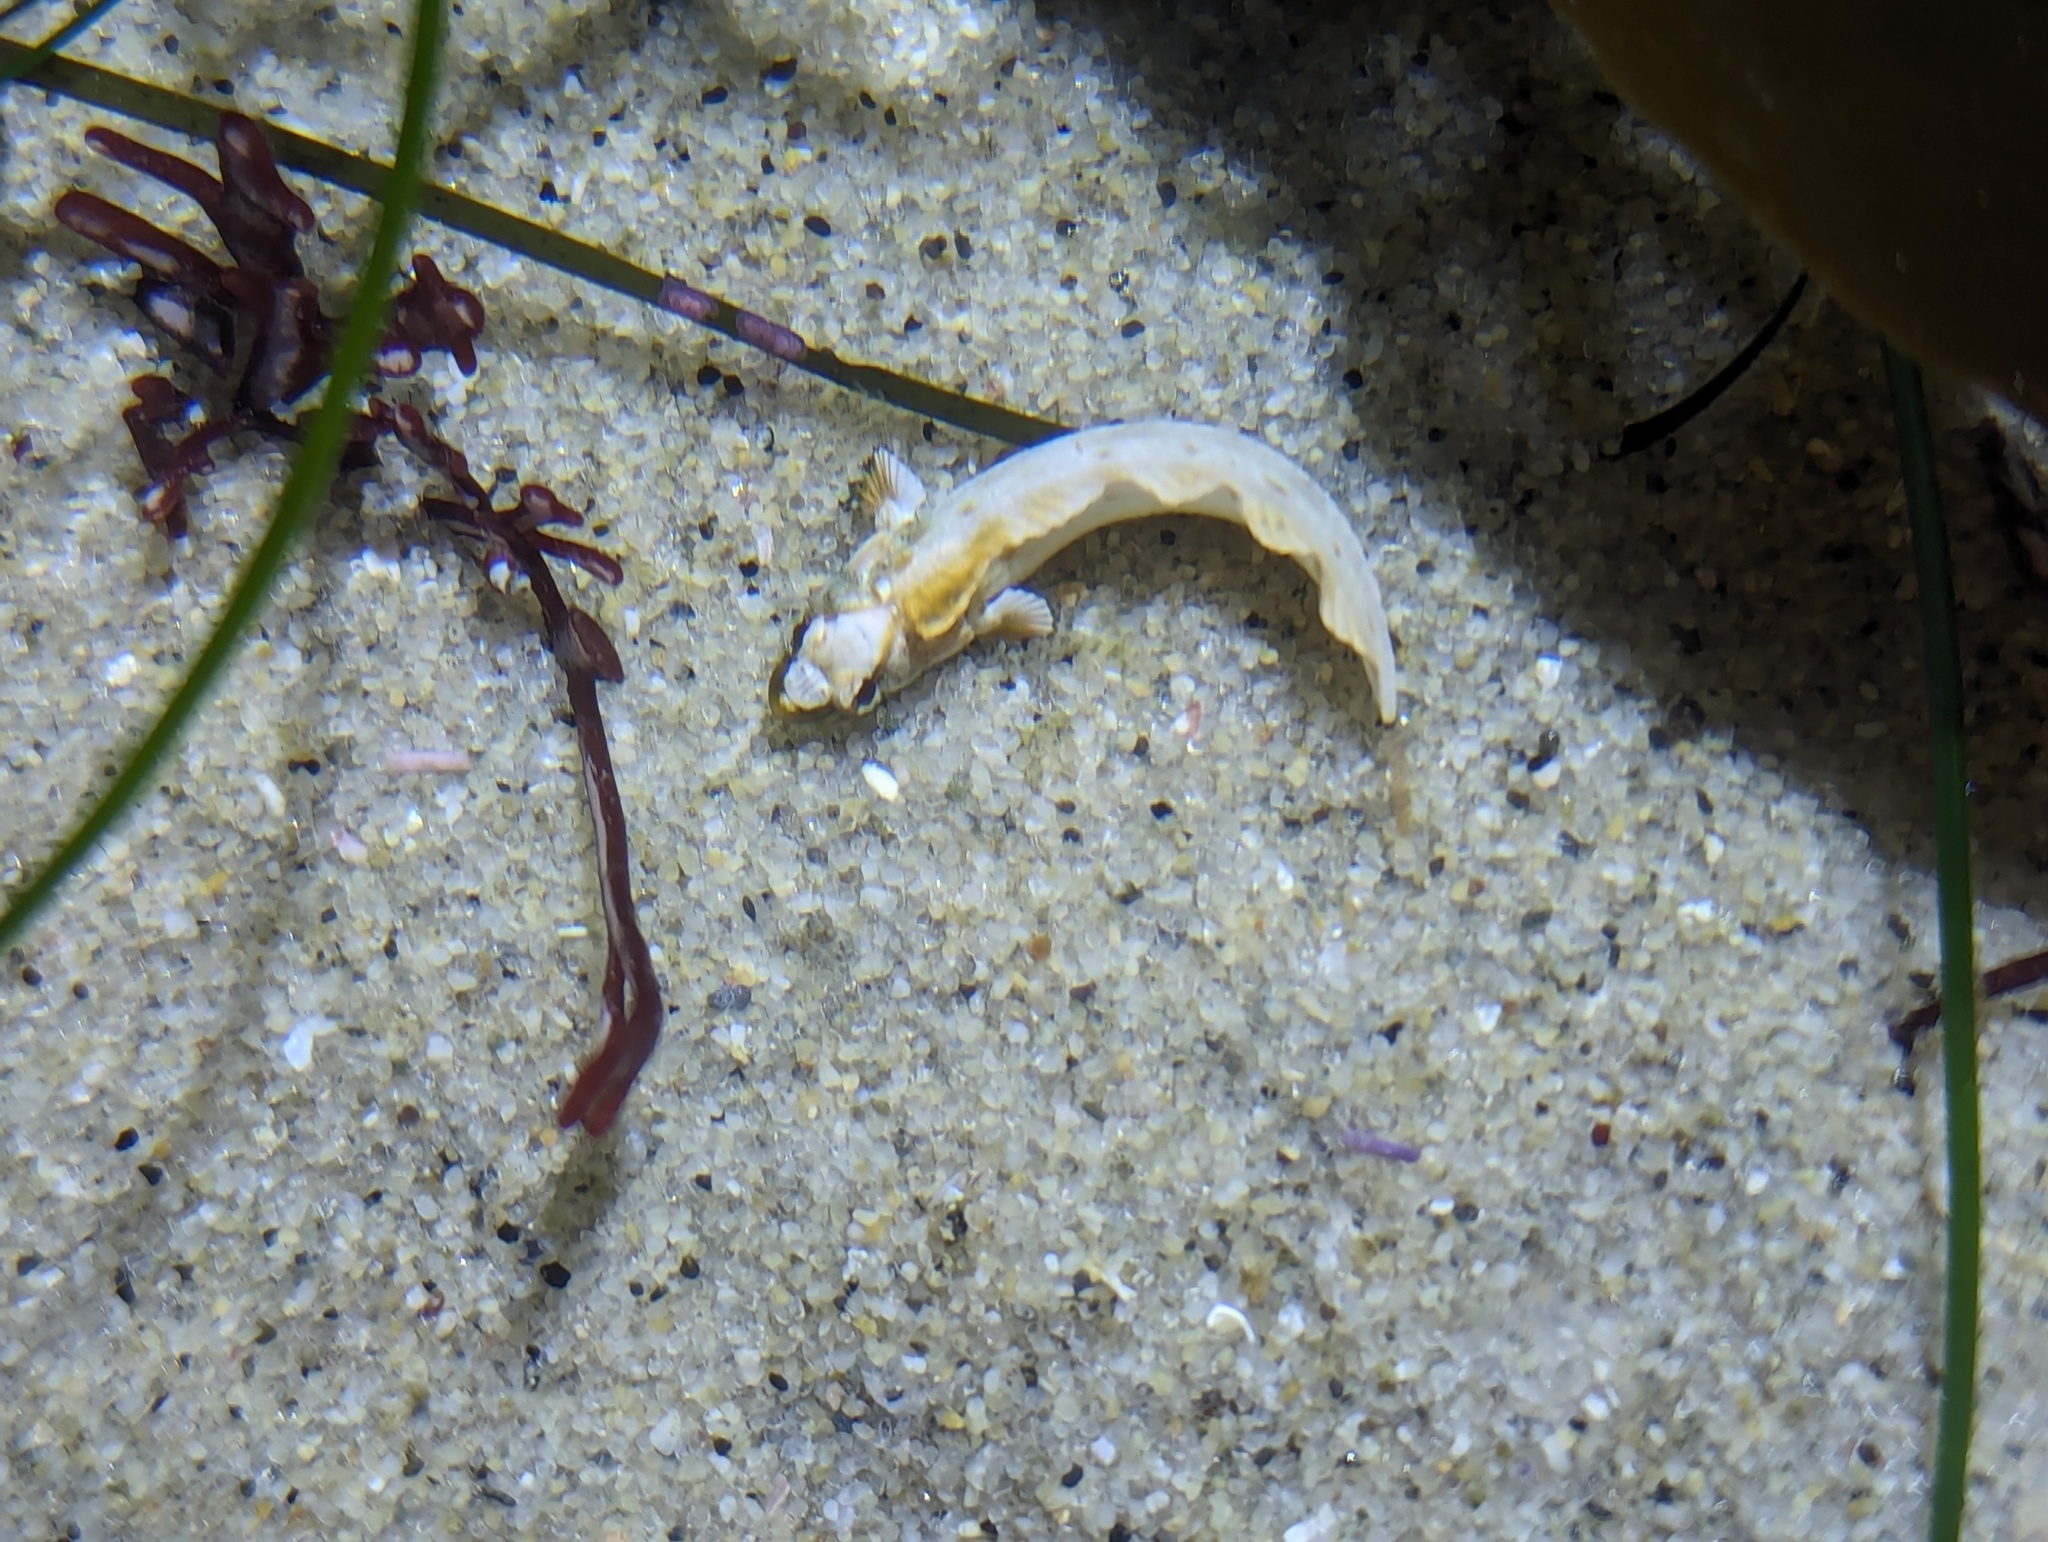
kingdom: Animalia
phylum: Chordata
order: Perciformes
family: Labrisomidae
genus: Paraclinus
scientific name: Paraclinus integripinnis
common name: Reef finspot
